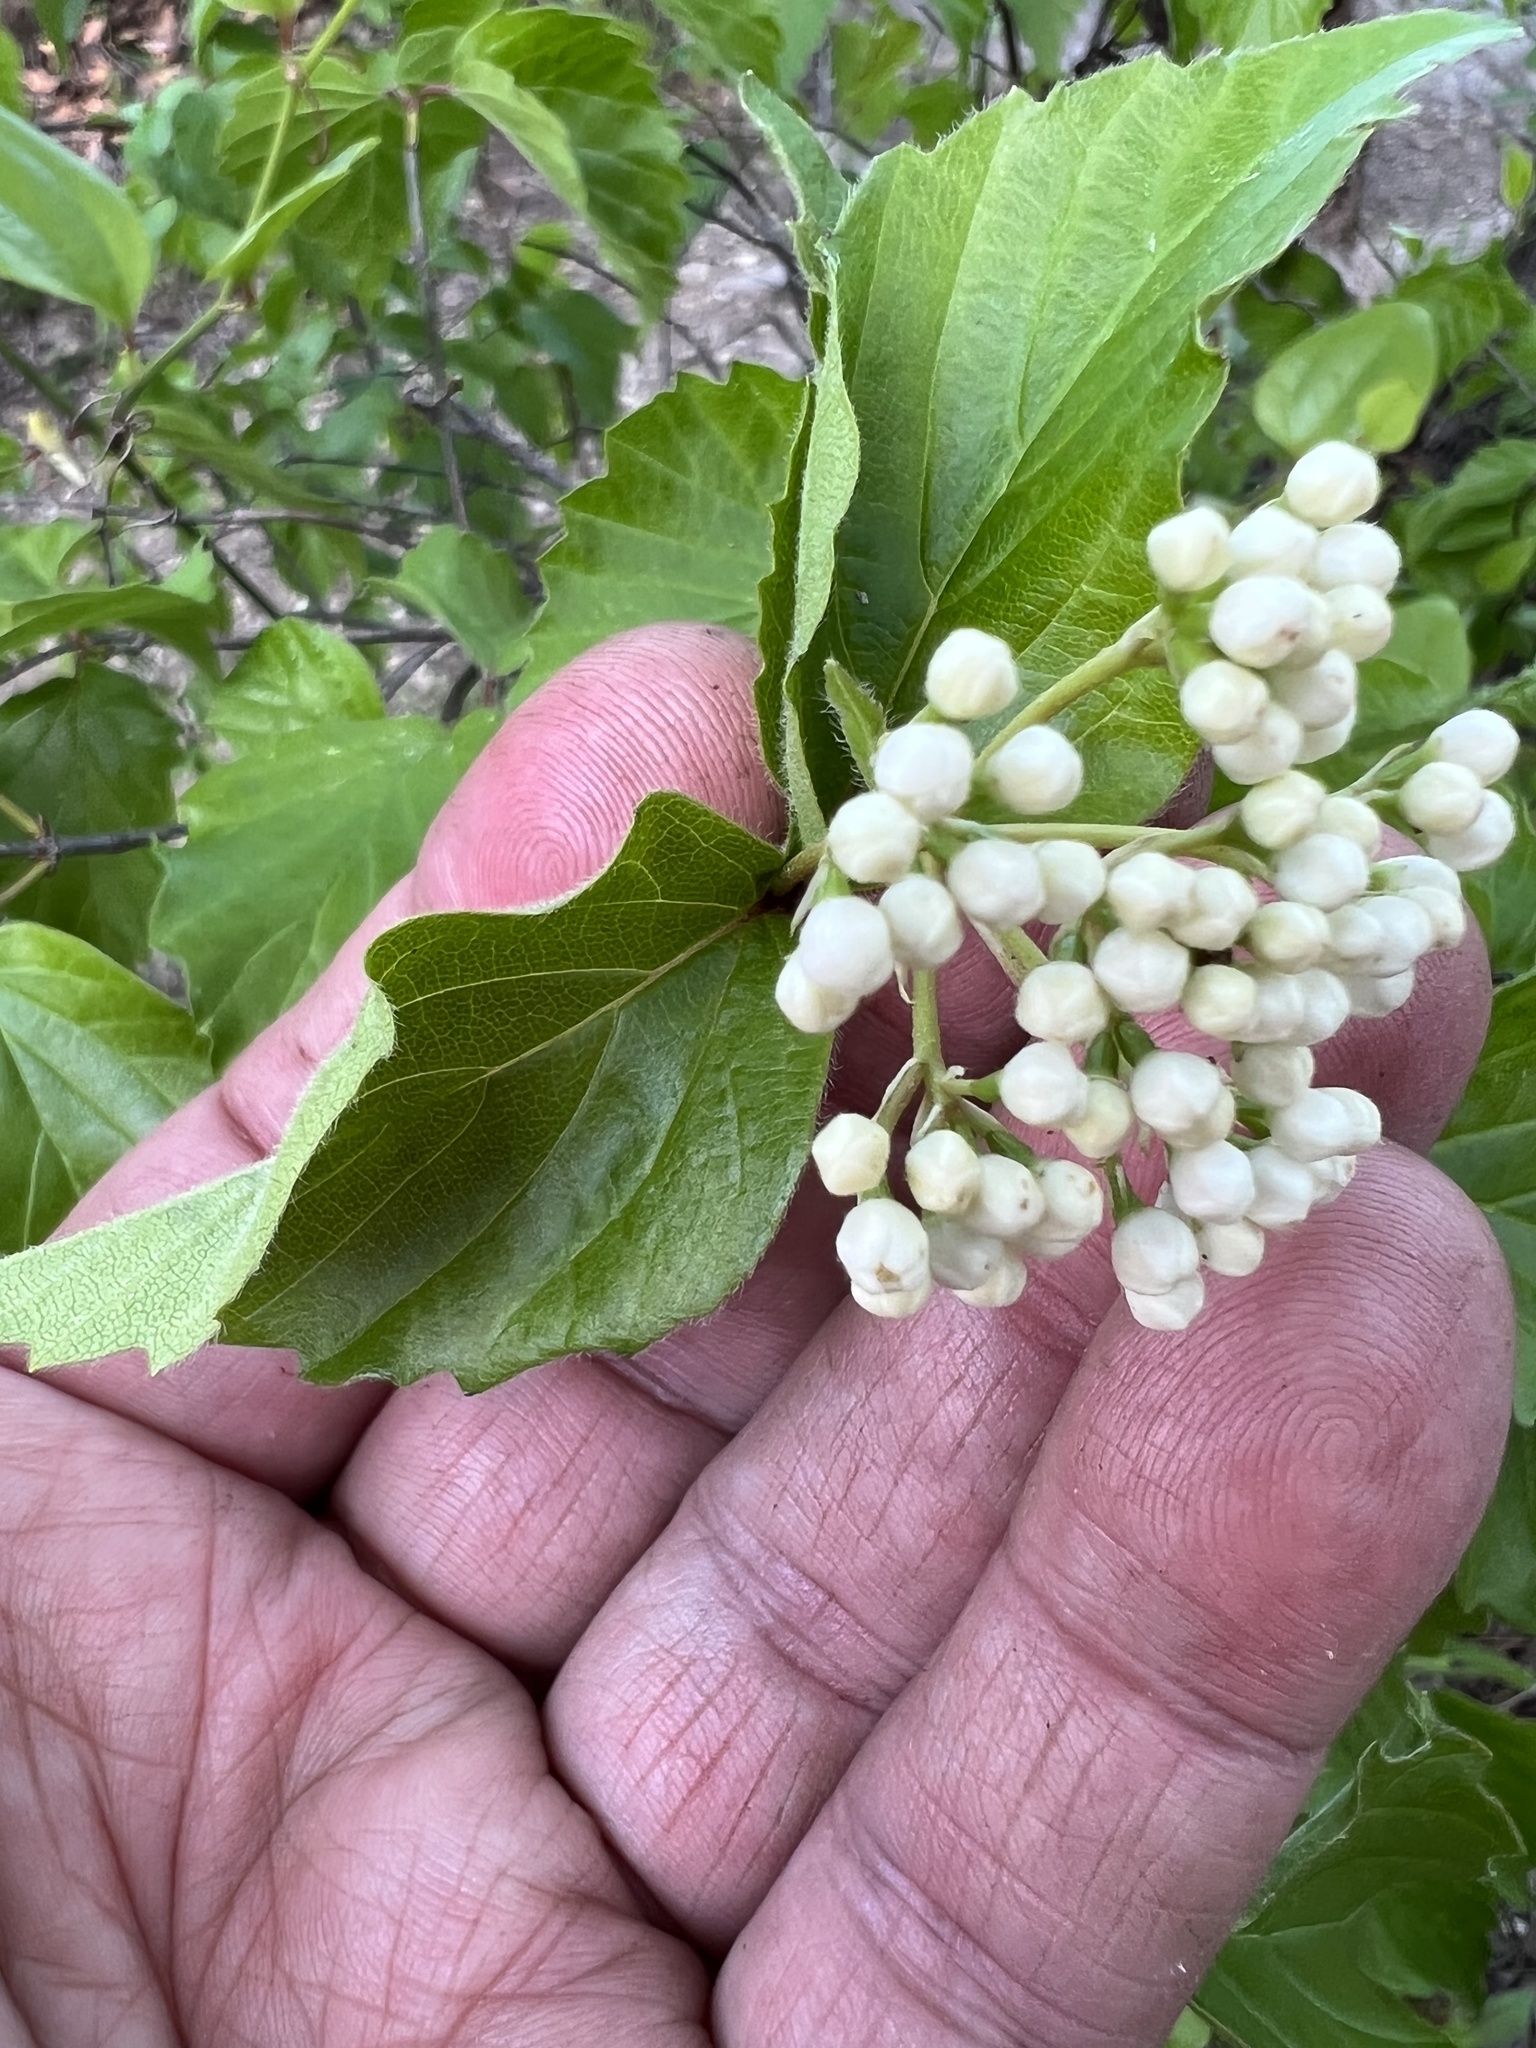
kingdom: Plantae
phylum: Tracheophyta
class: Magnoliopsida
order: Dipsacales
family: Viburnaceae
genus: Viburnum
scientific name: Viburnum rafinesqueanum
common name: Downy arrow-wood
